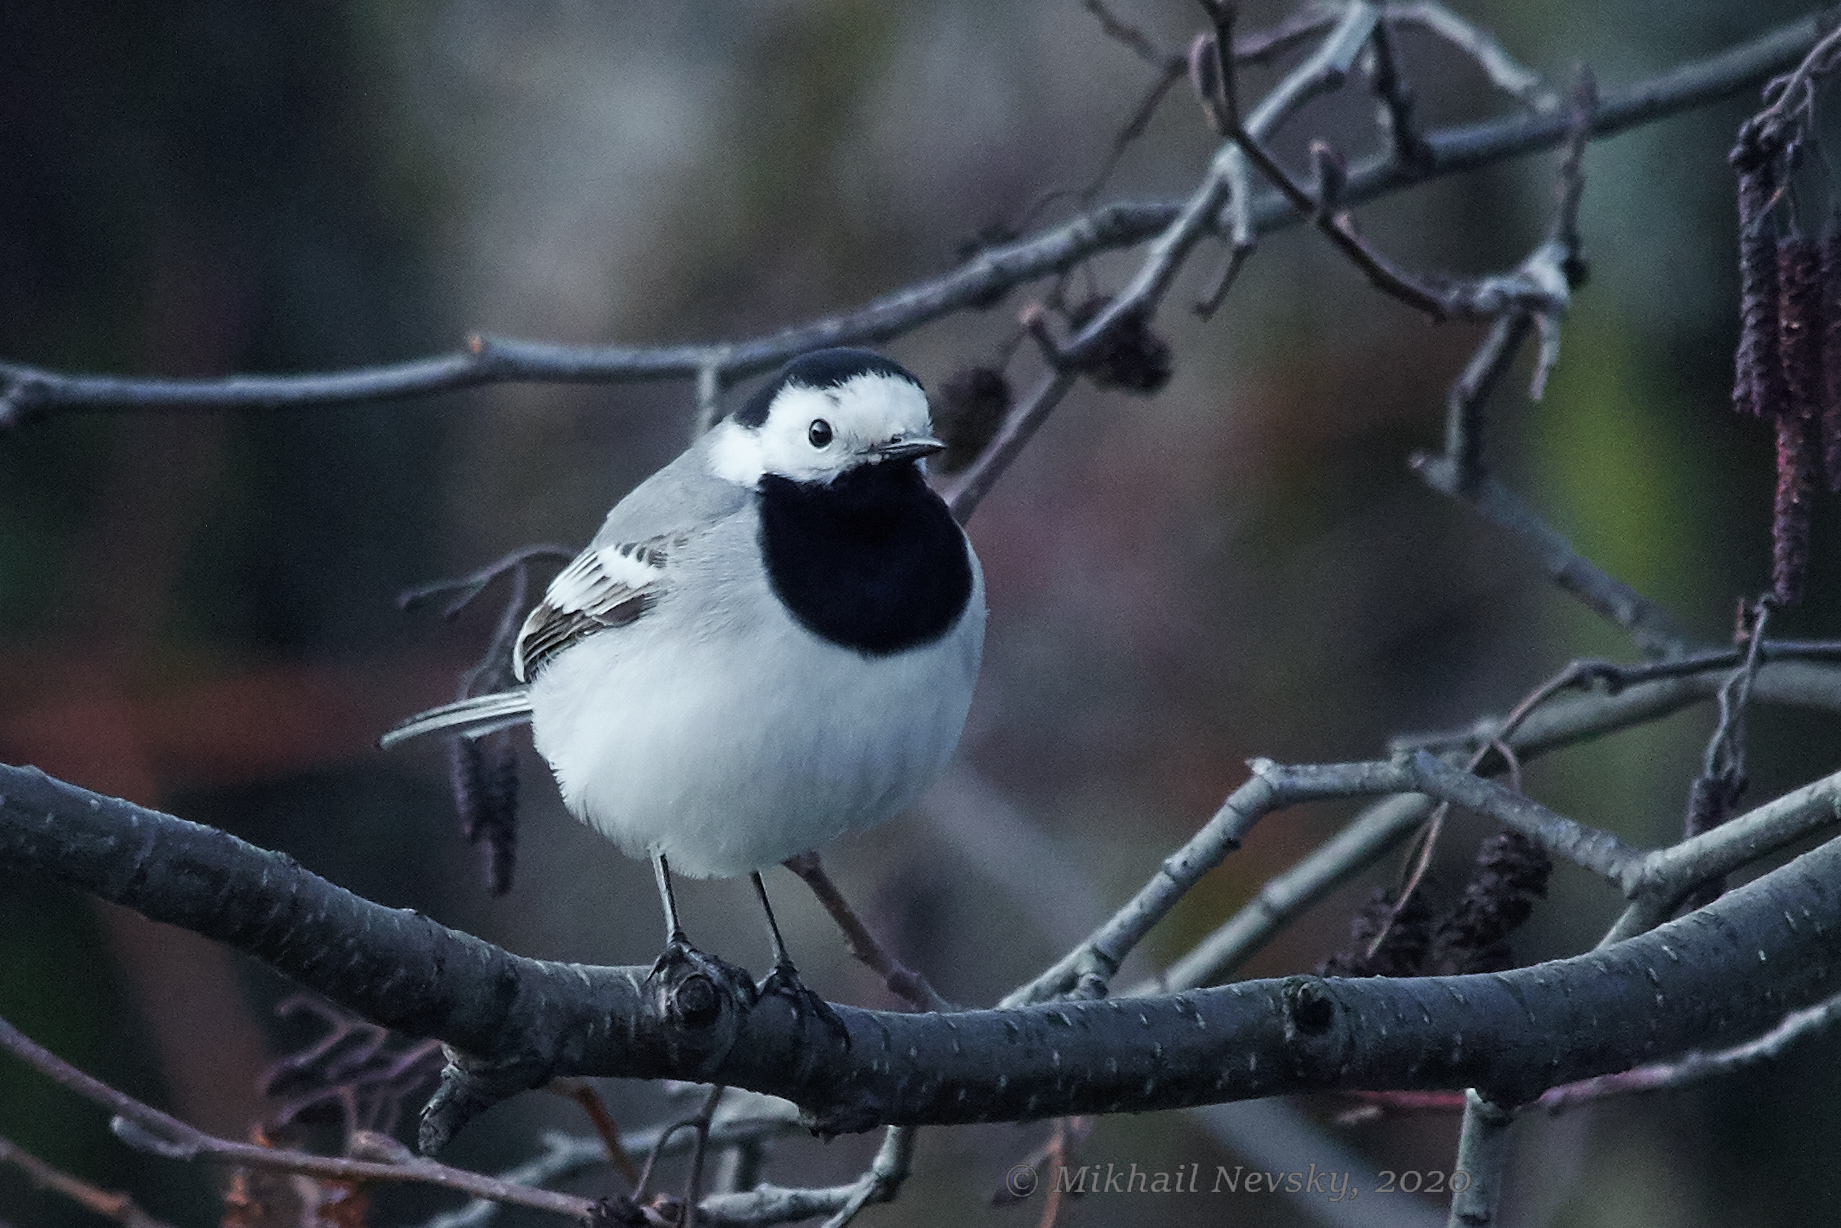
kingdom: Animalia
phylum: Chordata
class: Aves
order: Passeriformes
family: Motacillidae
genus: Motacilla
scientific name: Motacilla alba
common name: White wagtail
